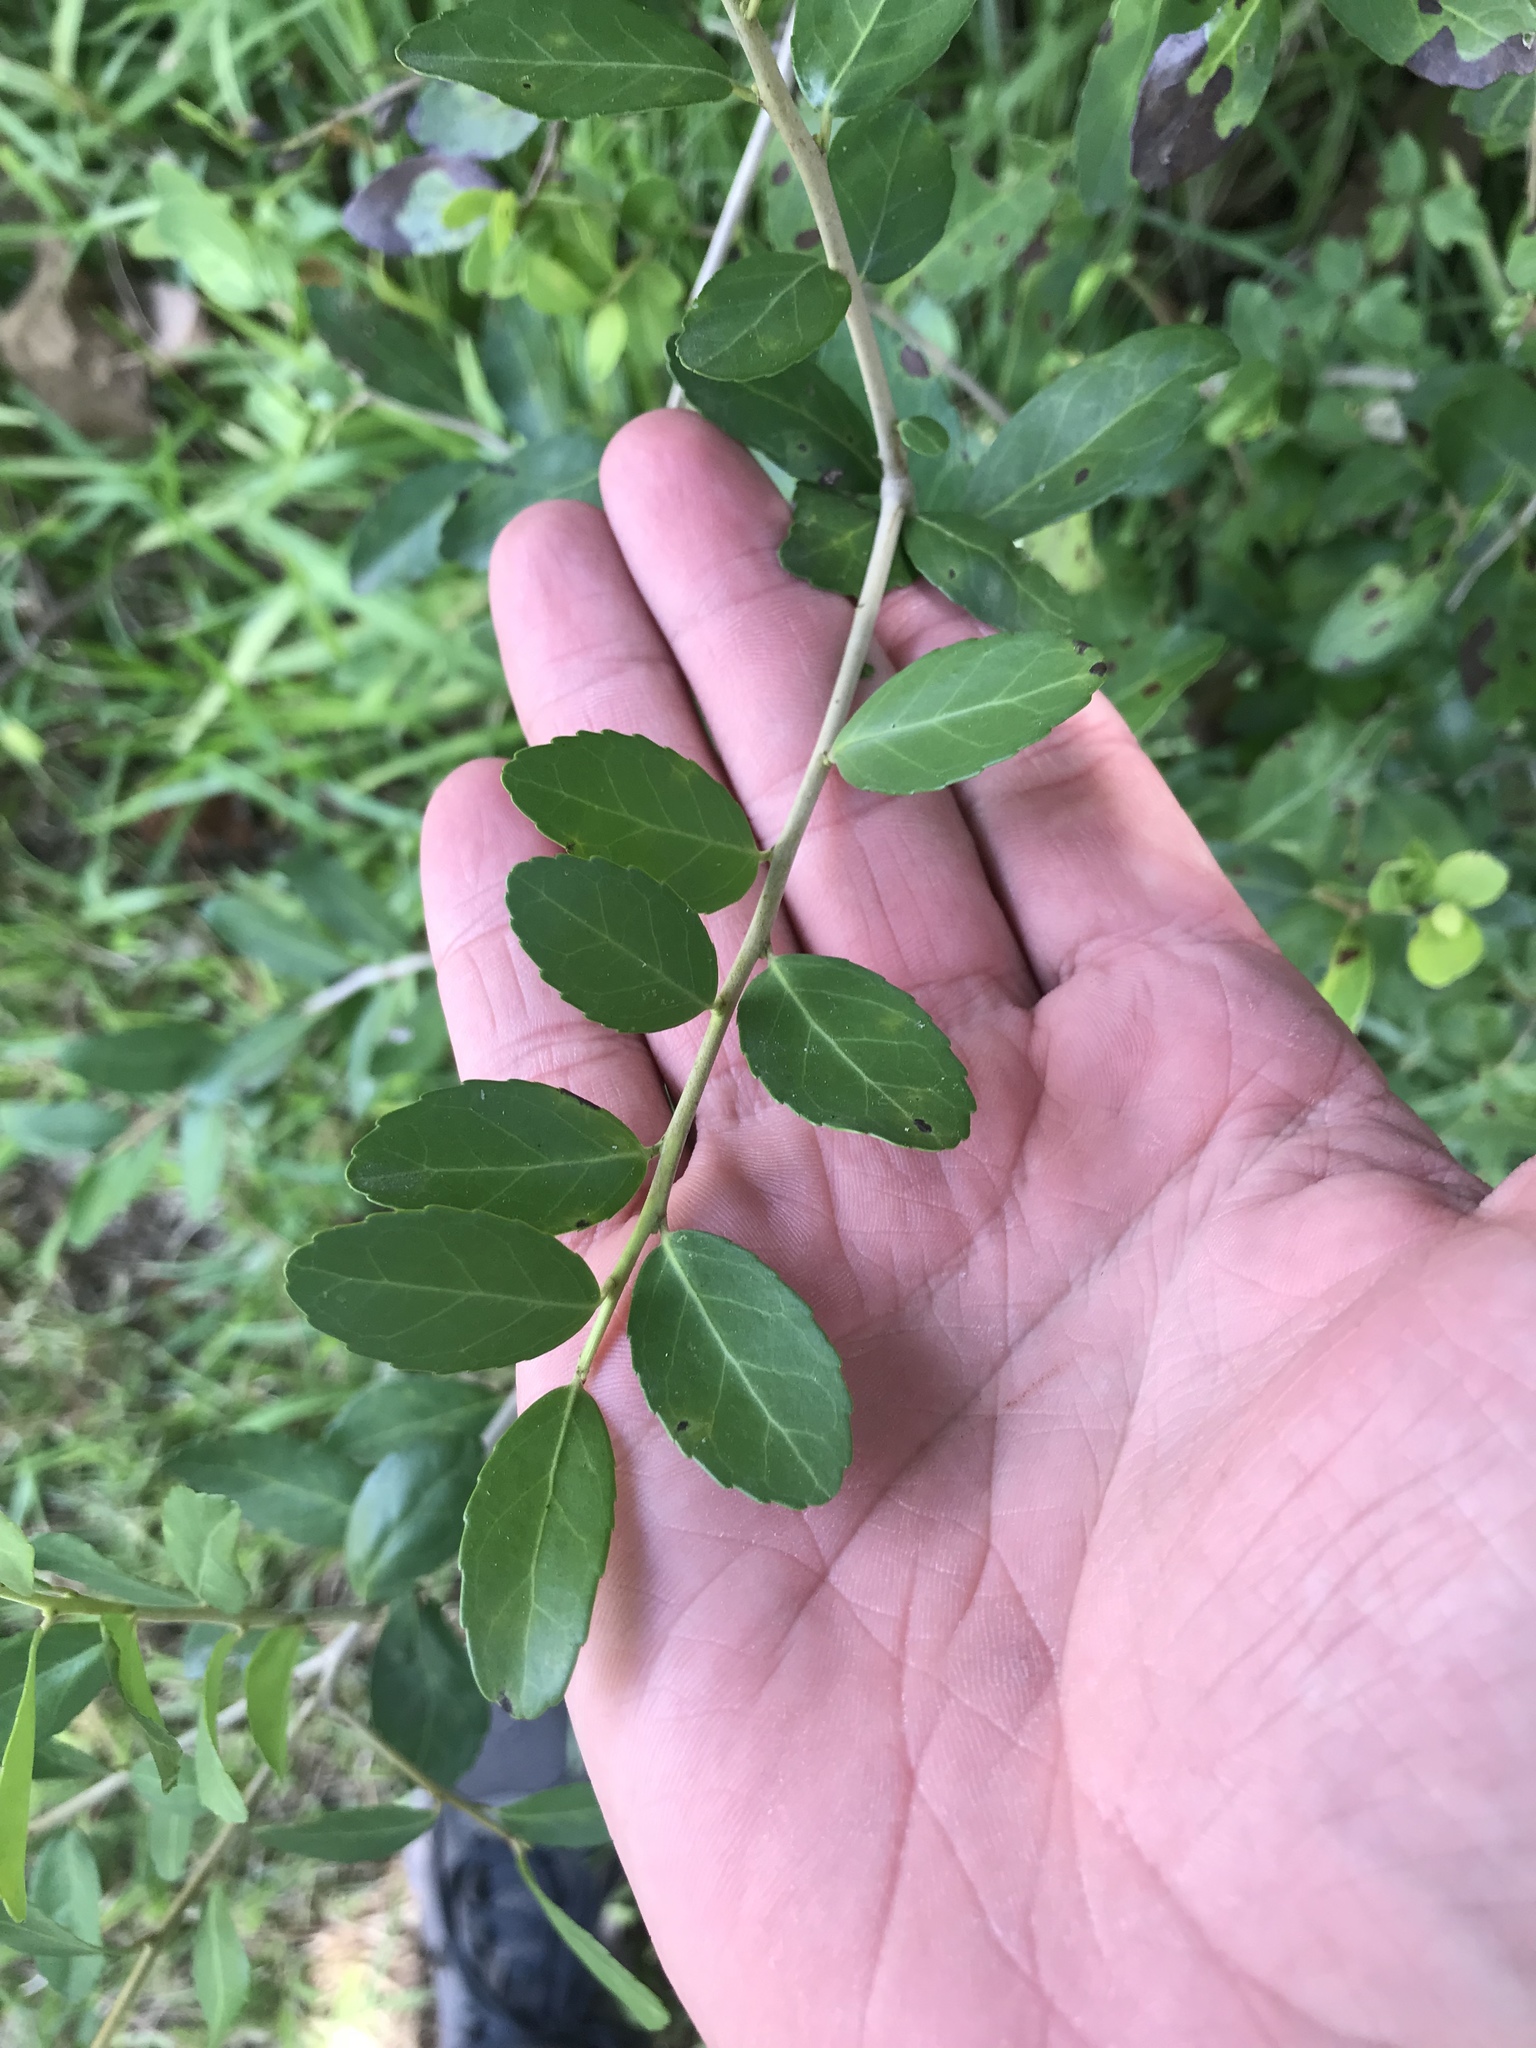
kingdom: Plantae
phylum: Tracheophyta
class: Magnoliopsida
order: Aquifoliales
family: Aquifoliaceae
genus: Ilex
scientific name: Ilex vomitoria
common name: Yaupon holly
